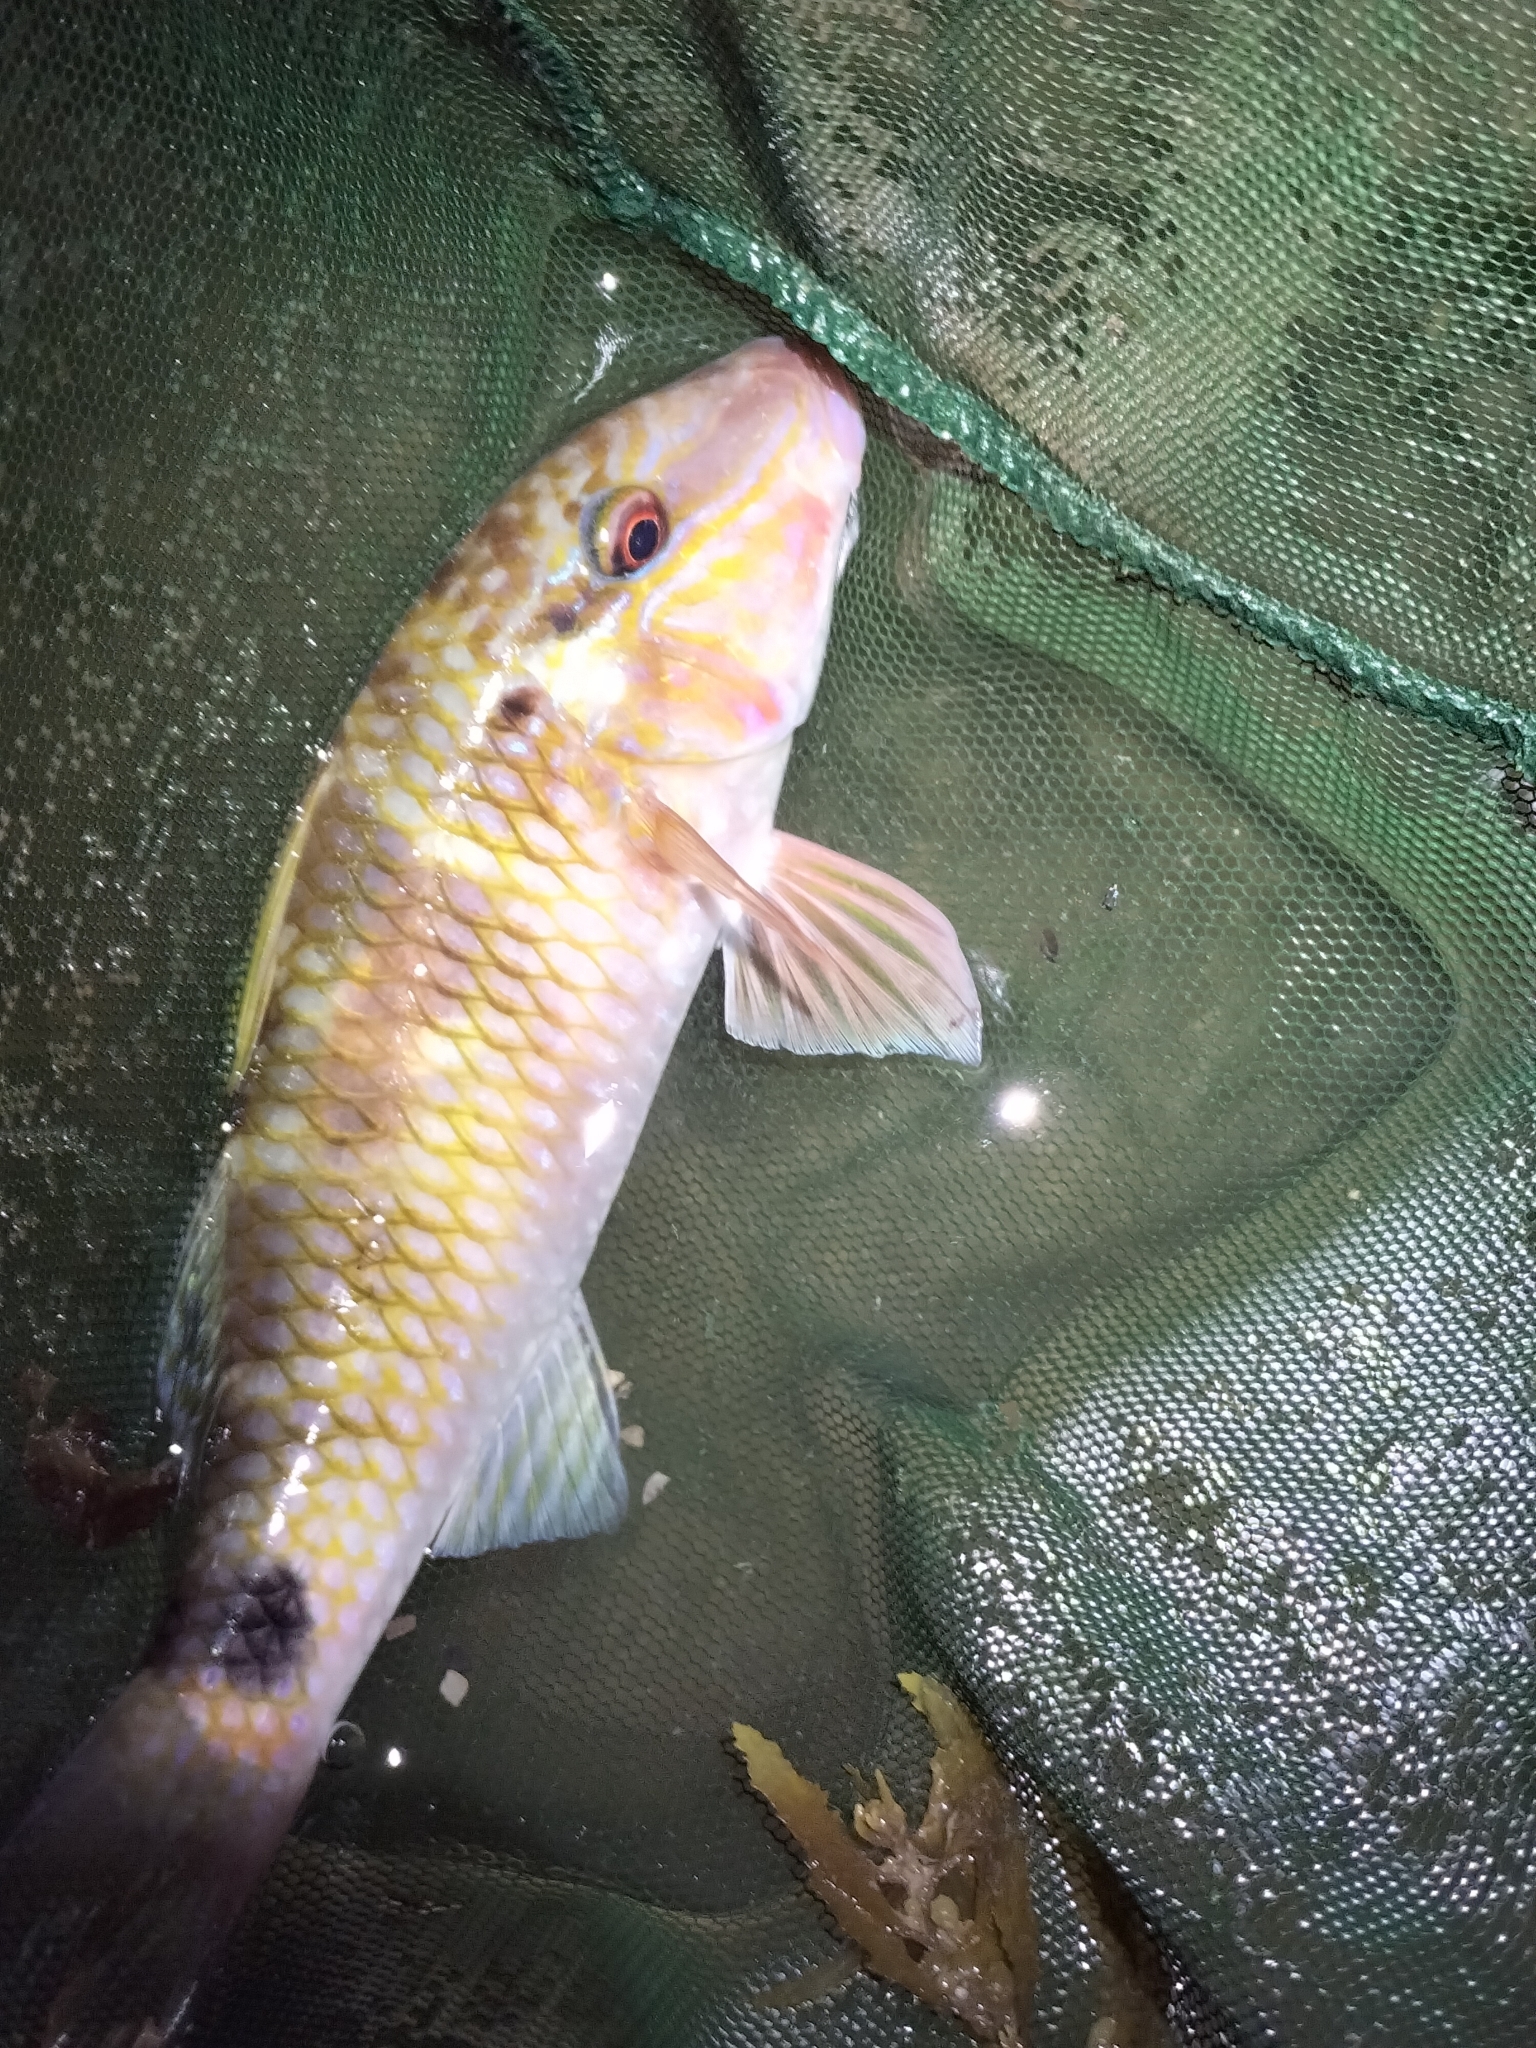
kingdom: Animalia
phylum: Chordata
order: Perciformes
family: Mullidae
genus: Parupeneus
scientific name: Parupeneus spilurus
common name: Blackspot goatfish
